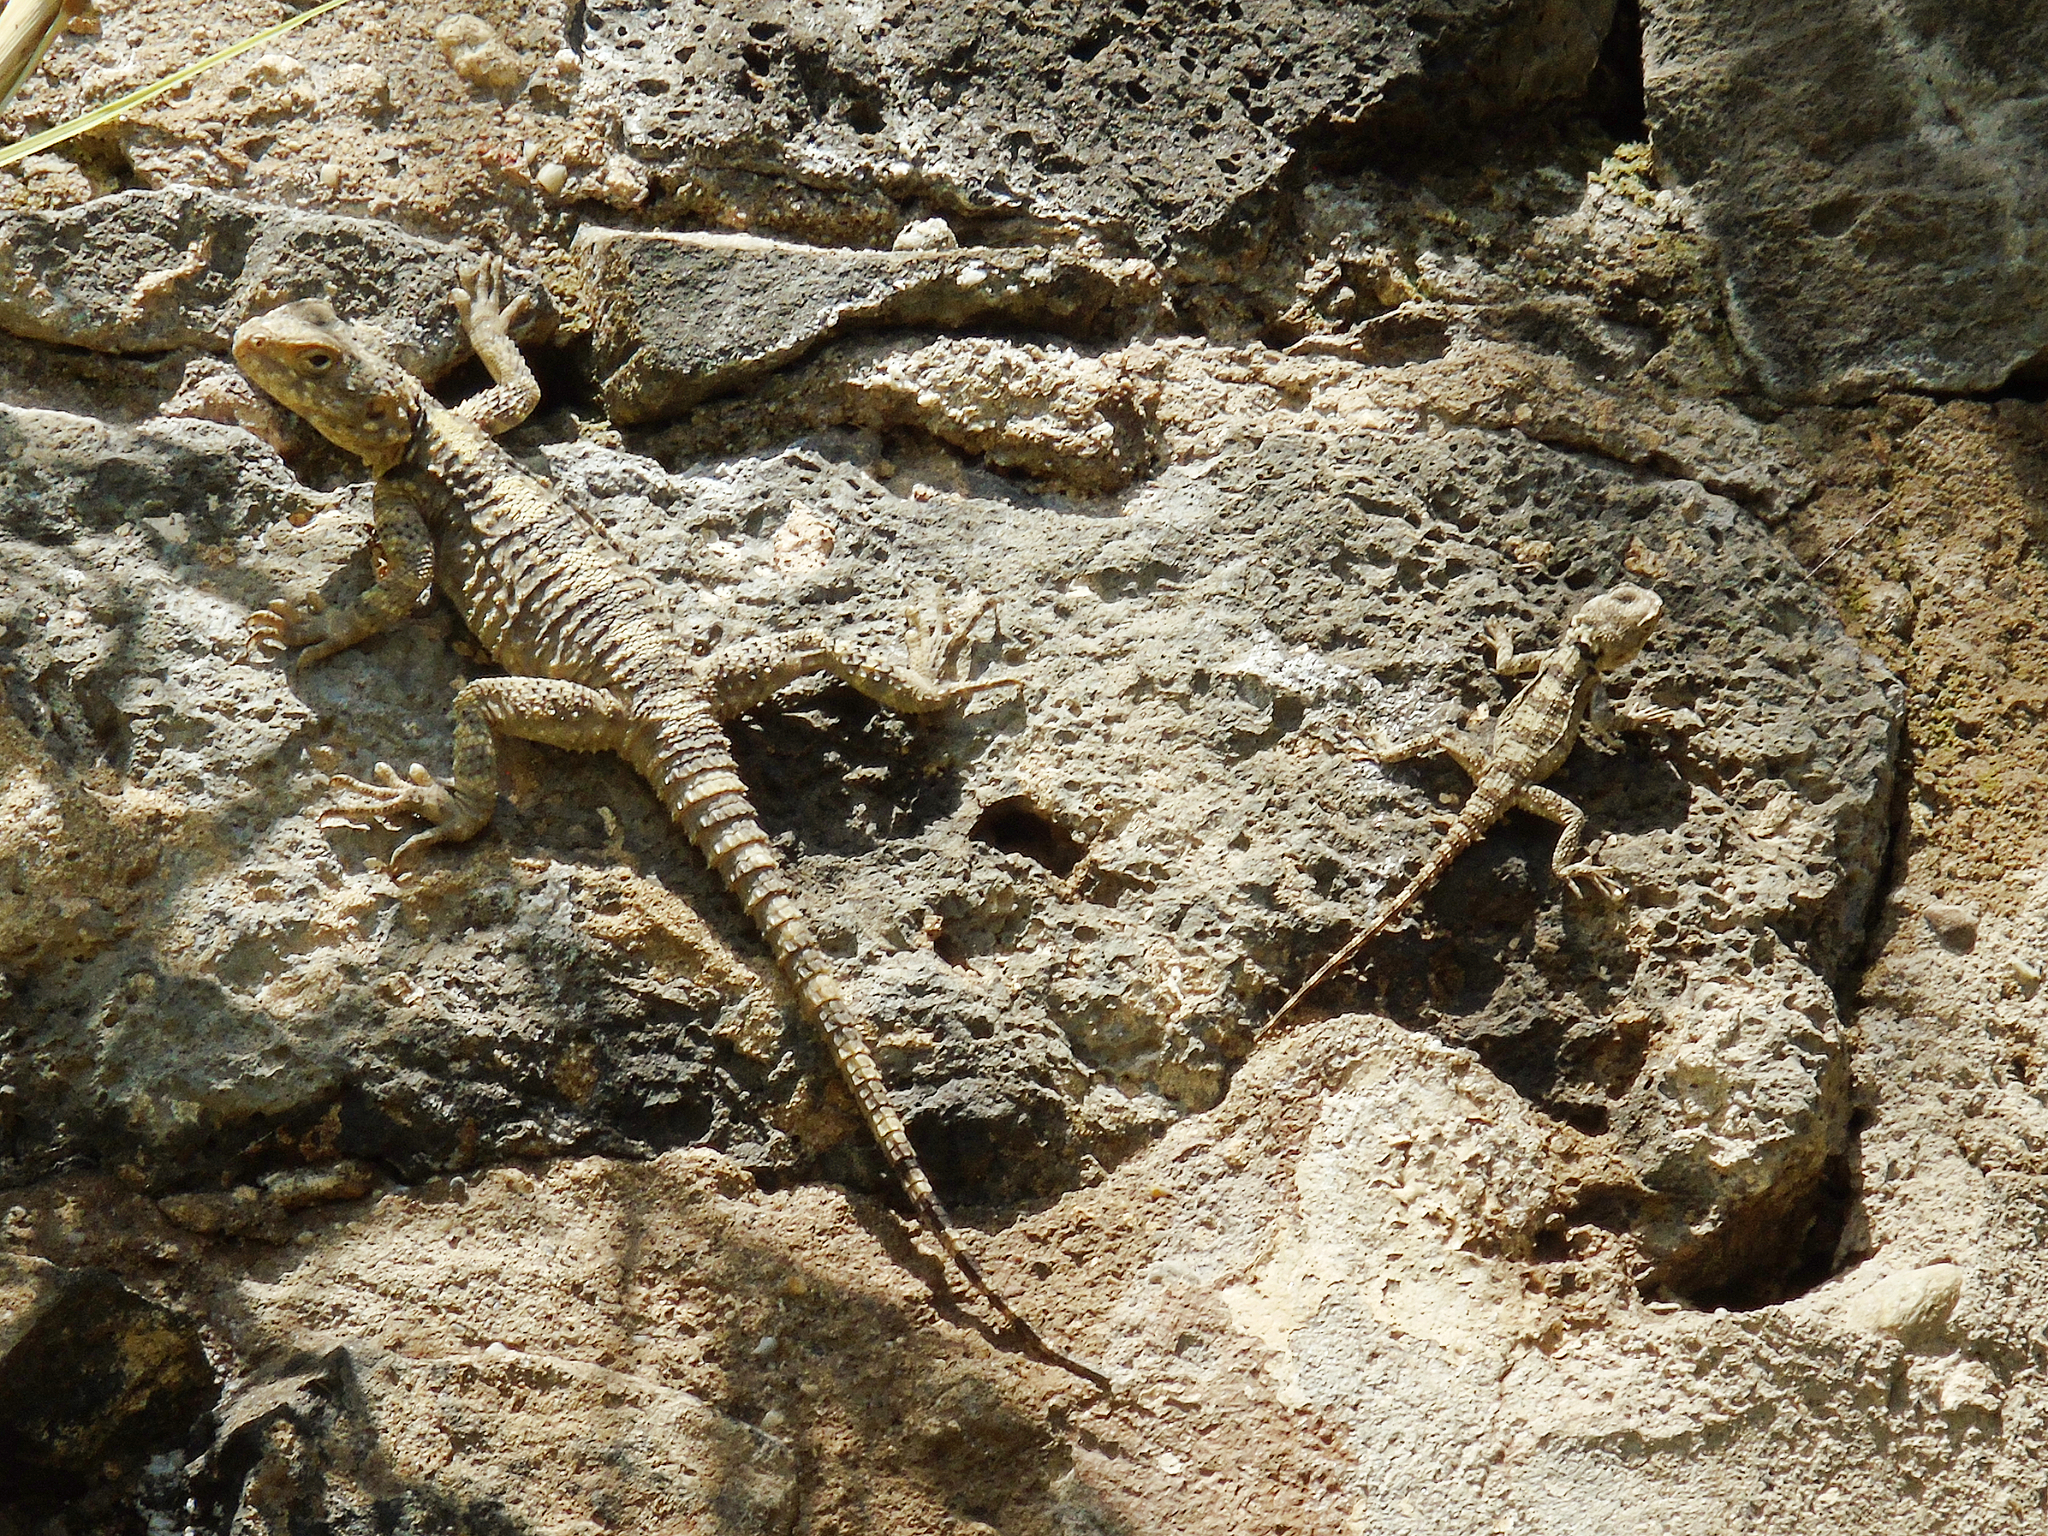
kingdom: Animalia
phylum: Chordata
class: Squamata
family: Agamidae
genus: Stellagama
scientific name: Stellagama stellio
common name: Starred agama
